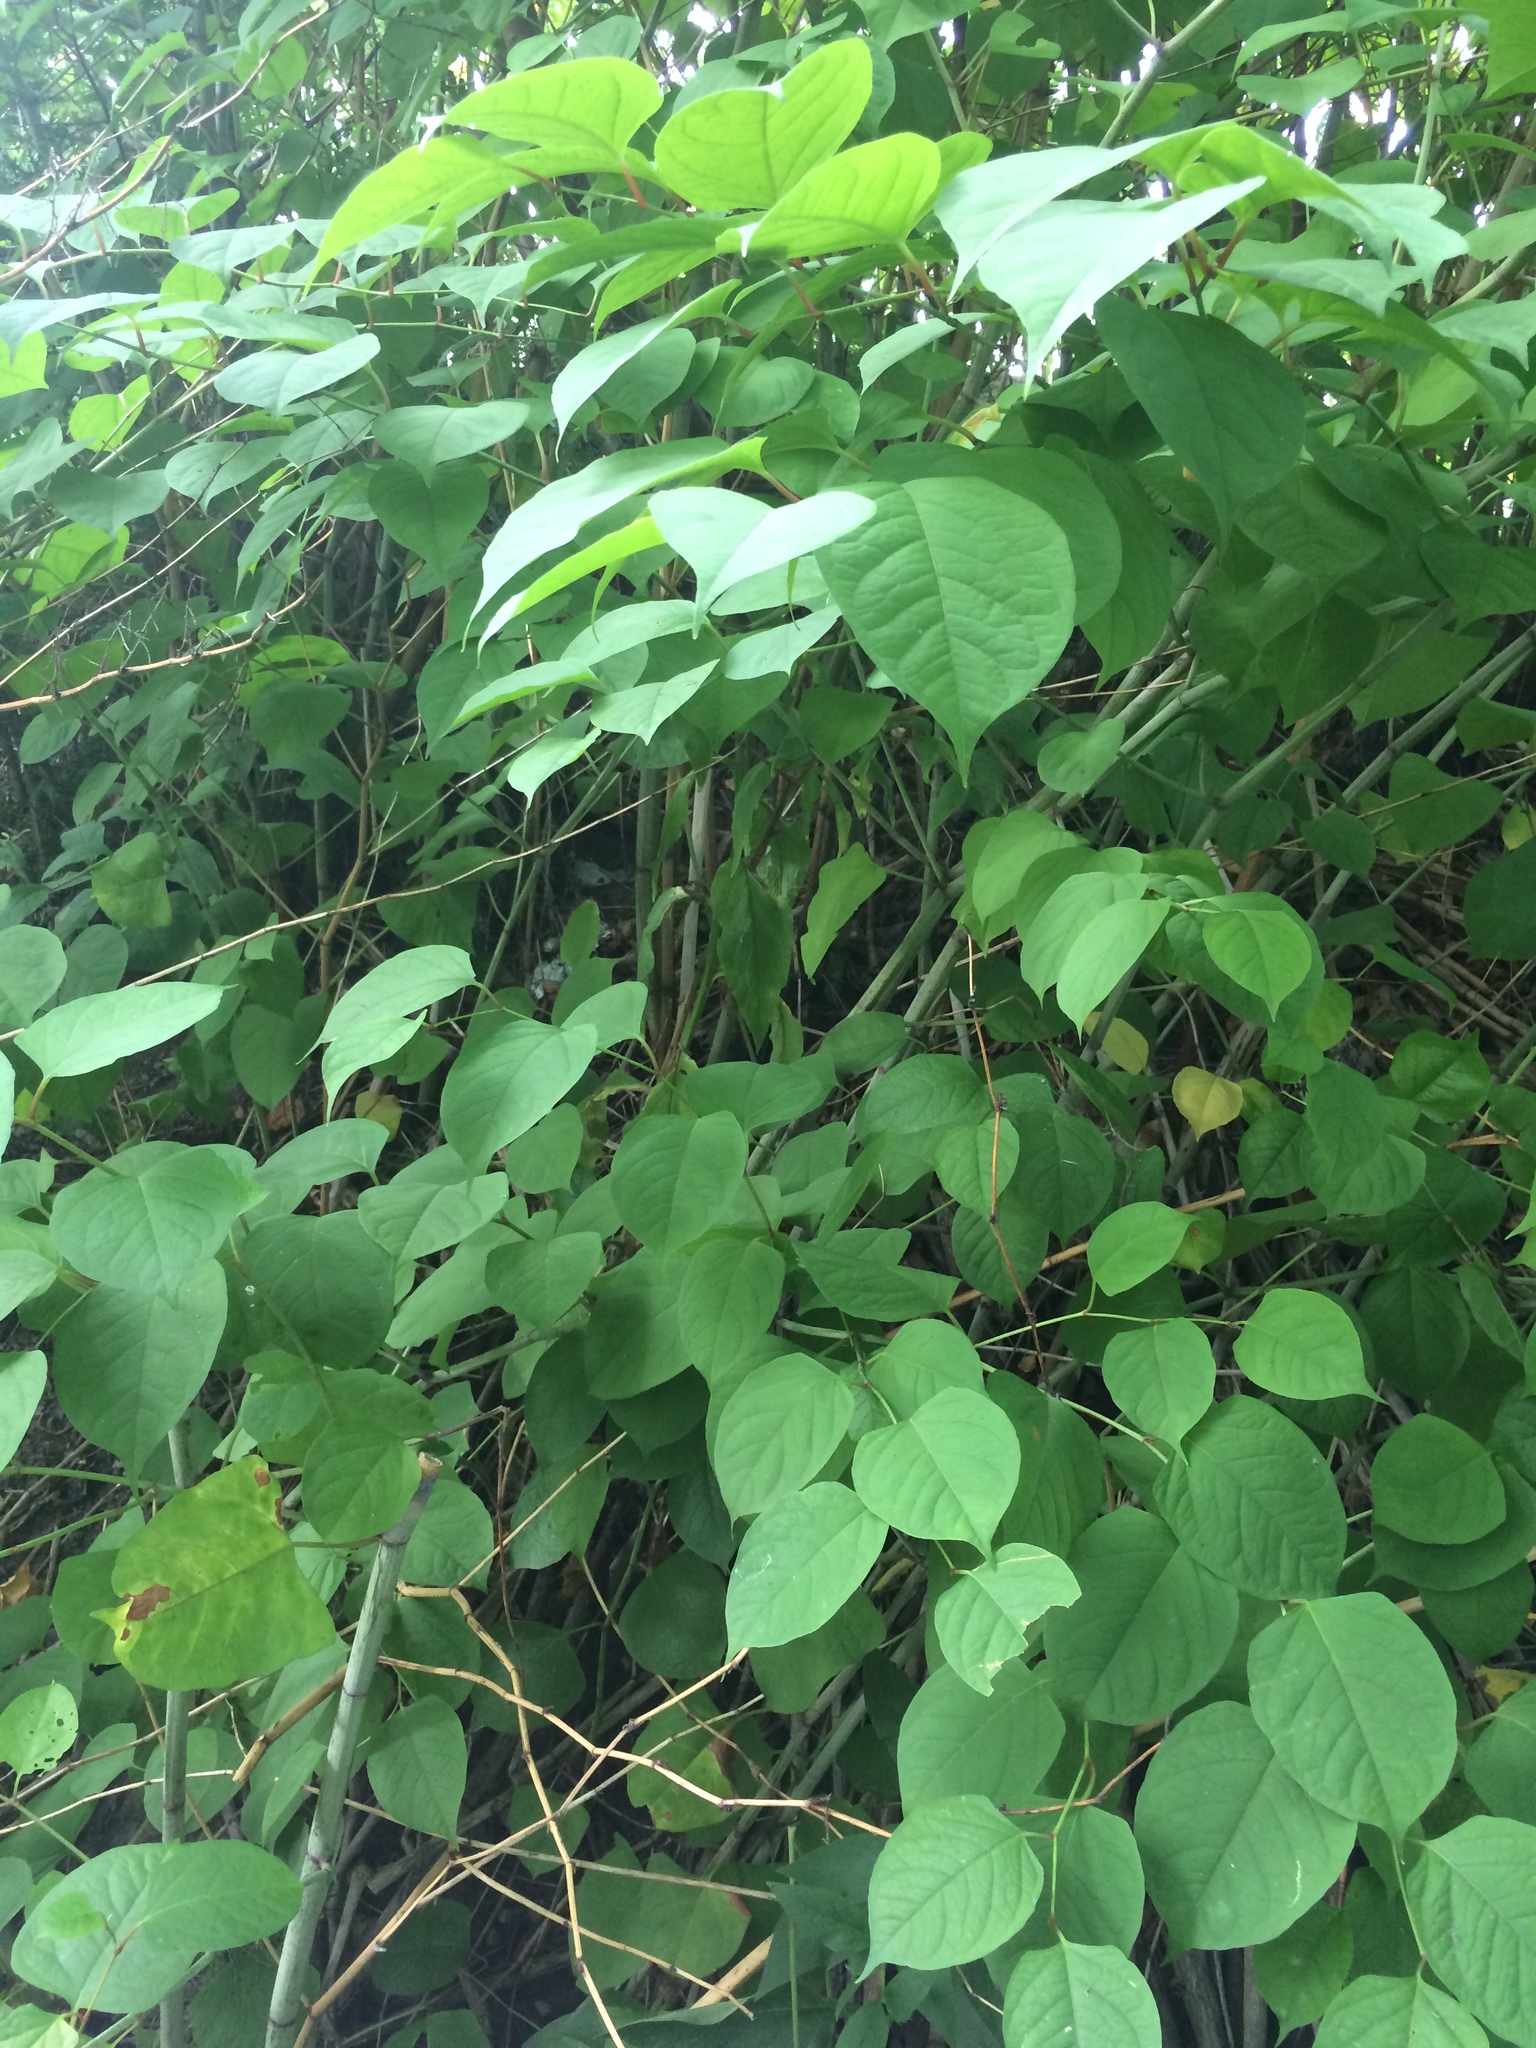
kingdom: Plantae
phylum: Tracheophyta
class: Magnoliopsida
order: Caryophyllales
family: Polygonaceae
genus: Reynoutria
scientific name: Reynoutria japonica
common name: Japanese knotweed
